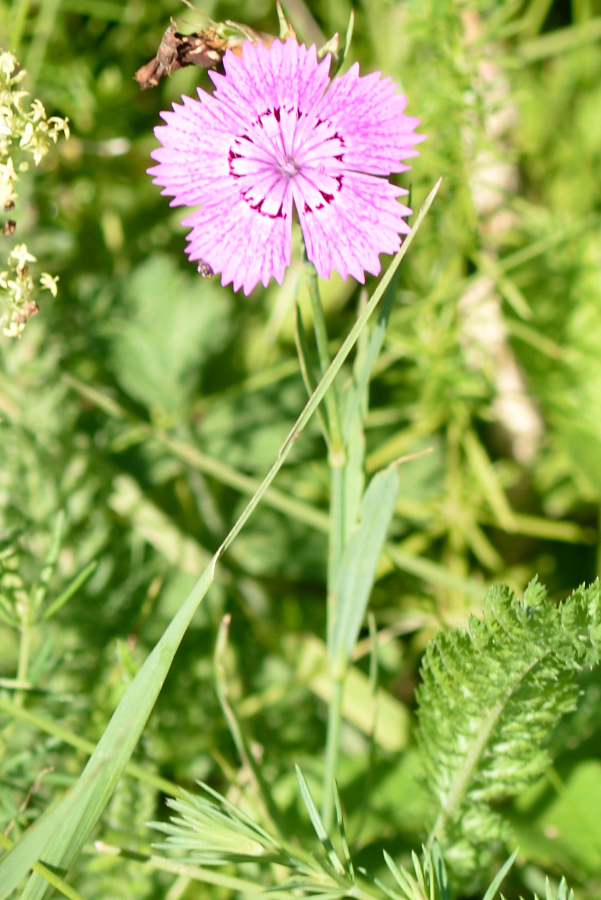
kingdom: Plantae
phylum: Tracheophyta
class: Magnoliopsida
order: Caryophyllales
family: Caryophyllaceae
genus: Dianthus
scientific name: Dianthus chinensis
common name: Rainbow pink
